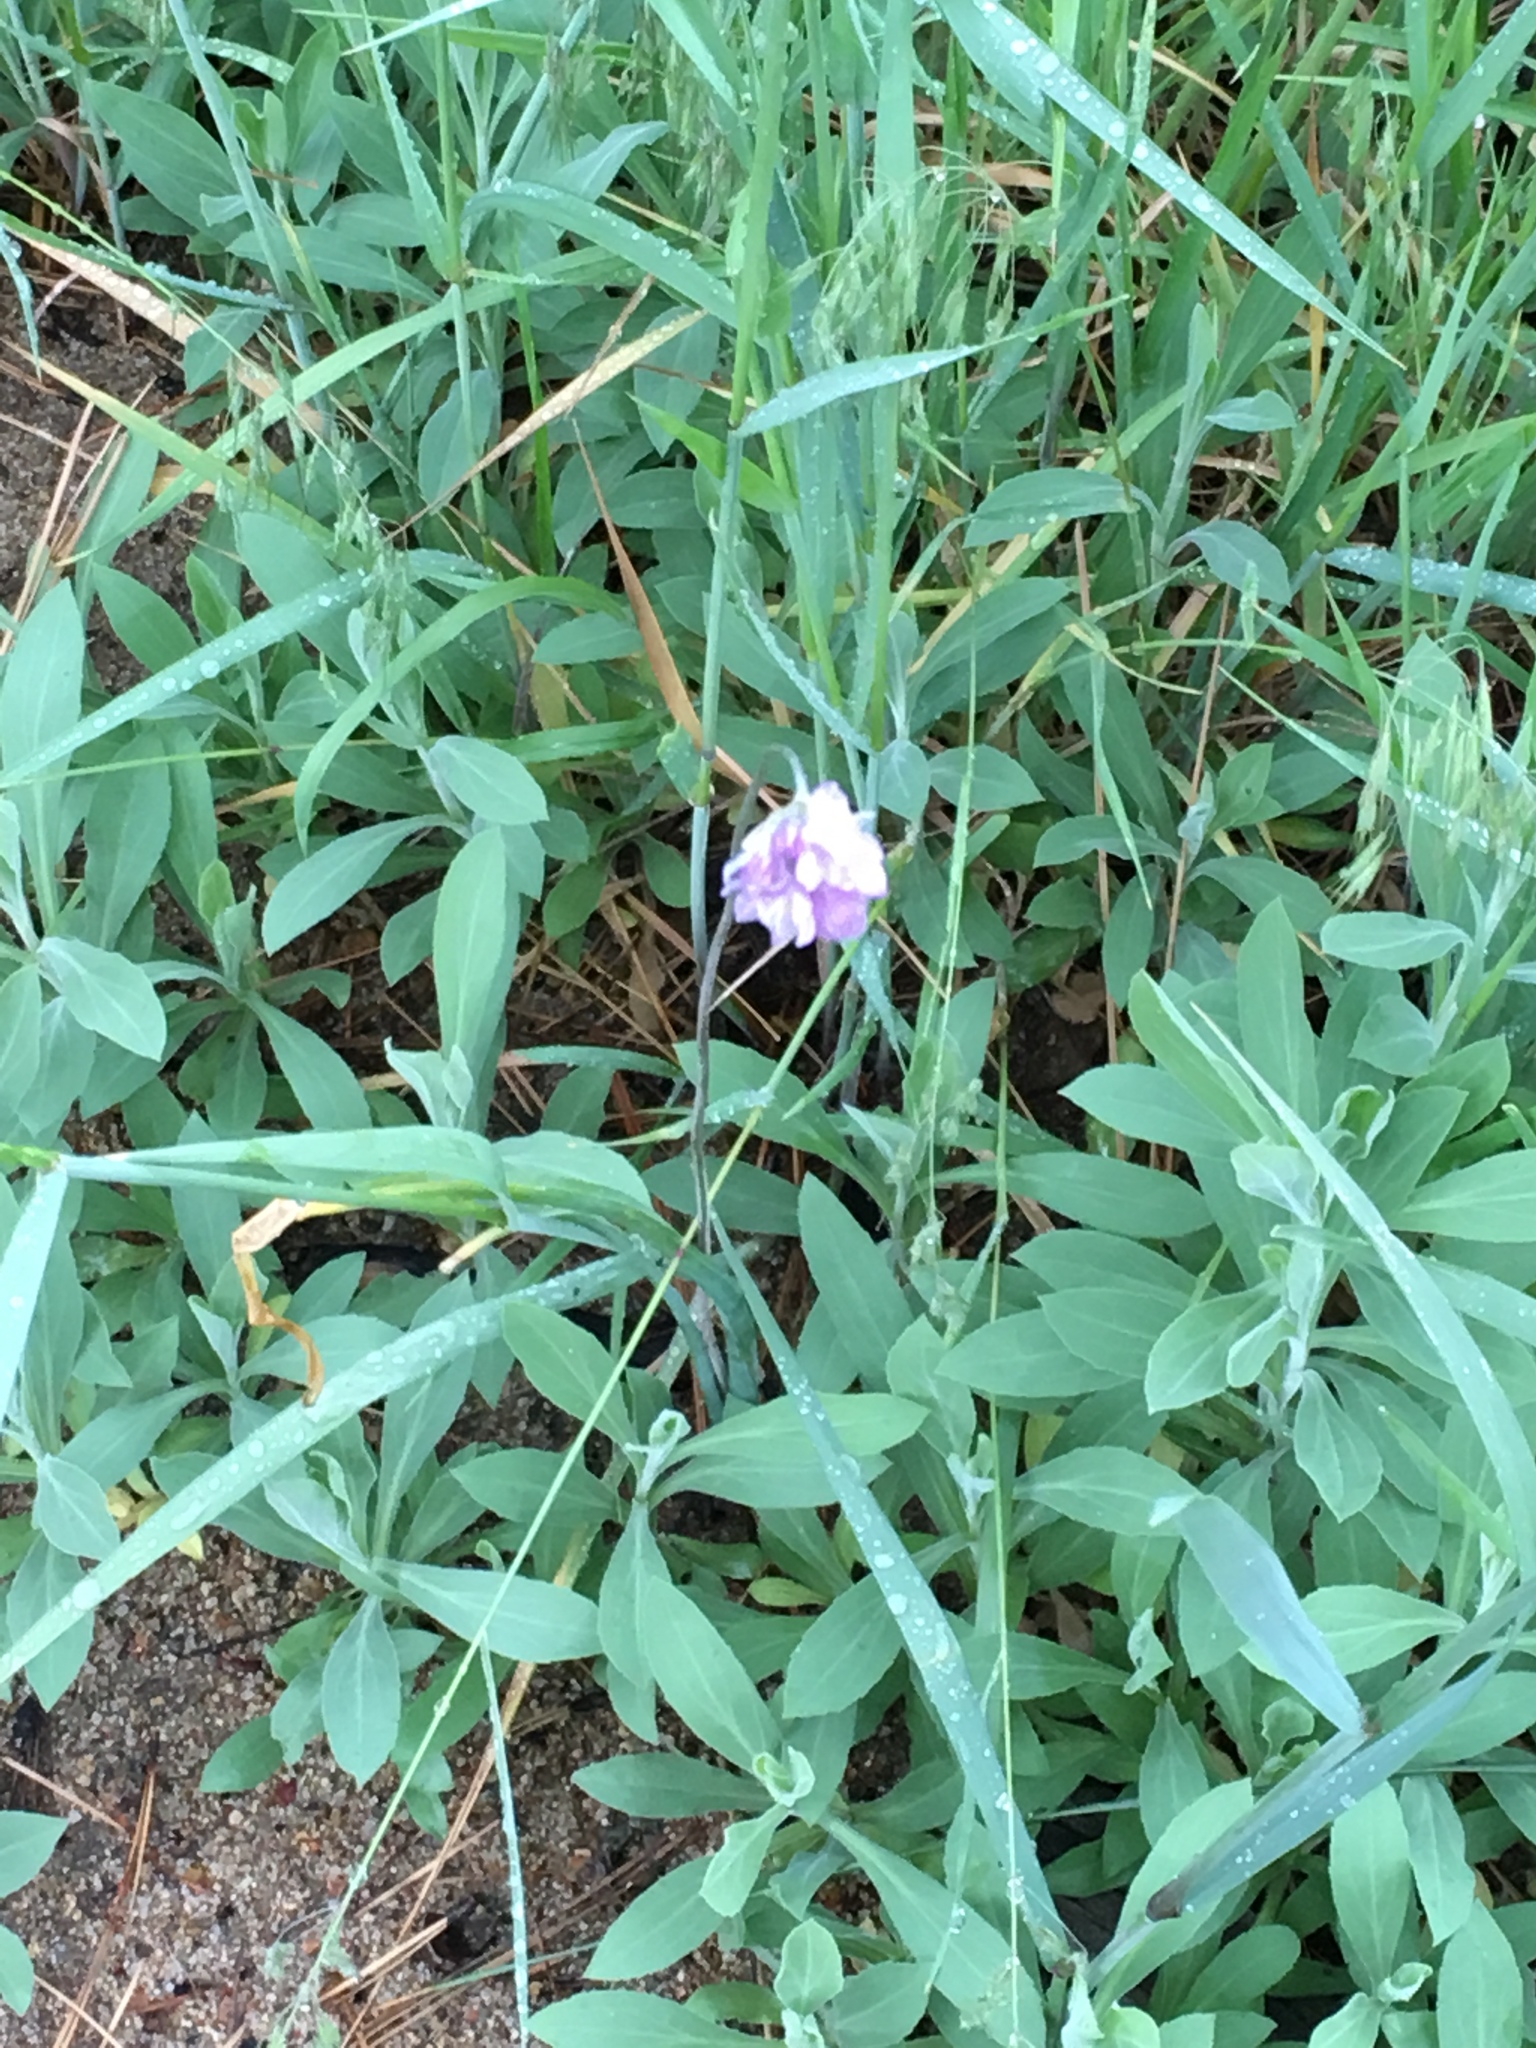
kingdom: Plantae
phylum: Tracheophyta
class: Liliopsida
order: Asparagales
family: Asparagaceae
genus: Dipterostemon
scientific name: Dipterostemon capitatus
